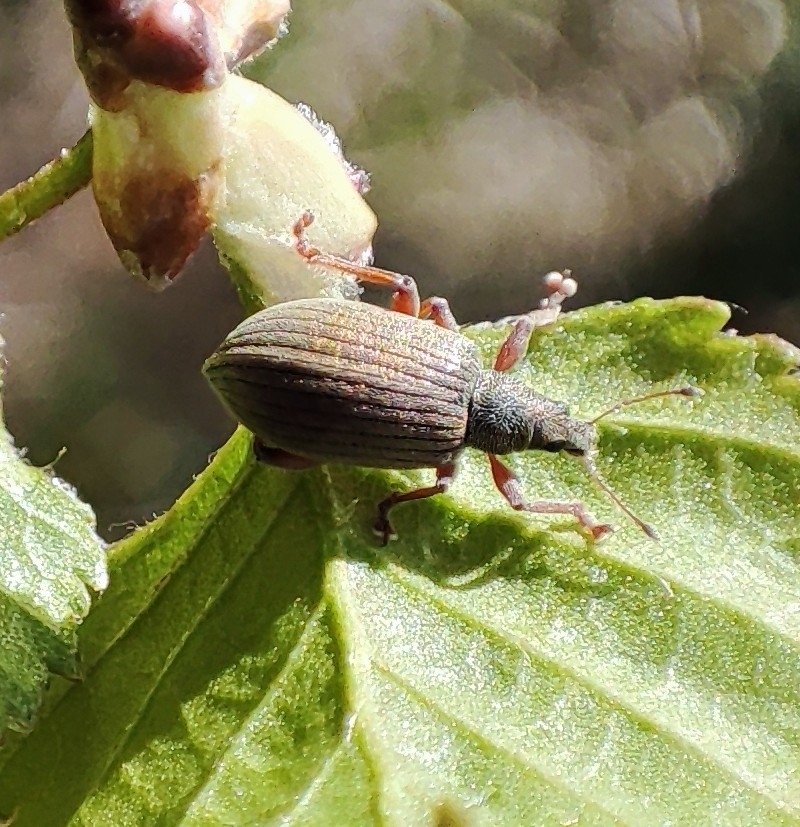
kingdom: Animalia
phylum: Arthropoda
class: Insecta
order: Coleoptera
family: Curculionidae
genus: Polydrusus
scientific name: Polydrusus mollis
